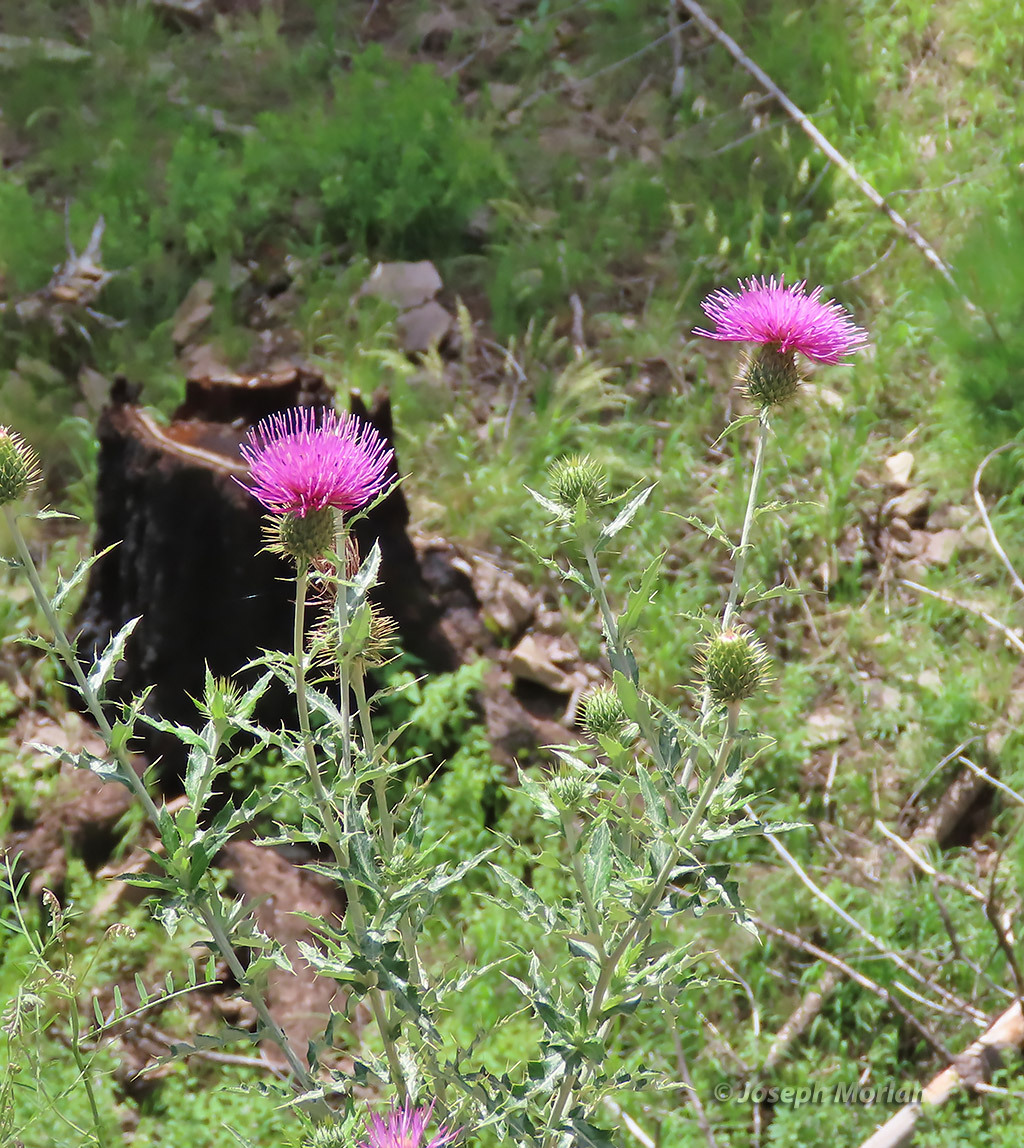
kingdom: Plantae
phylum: Tracheophyta
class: Magnoliopsida
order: Asterales
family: Asteraceae
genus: Cirsium
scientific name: Cirsium ochrocentrum
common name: Yellow-spine thistle
